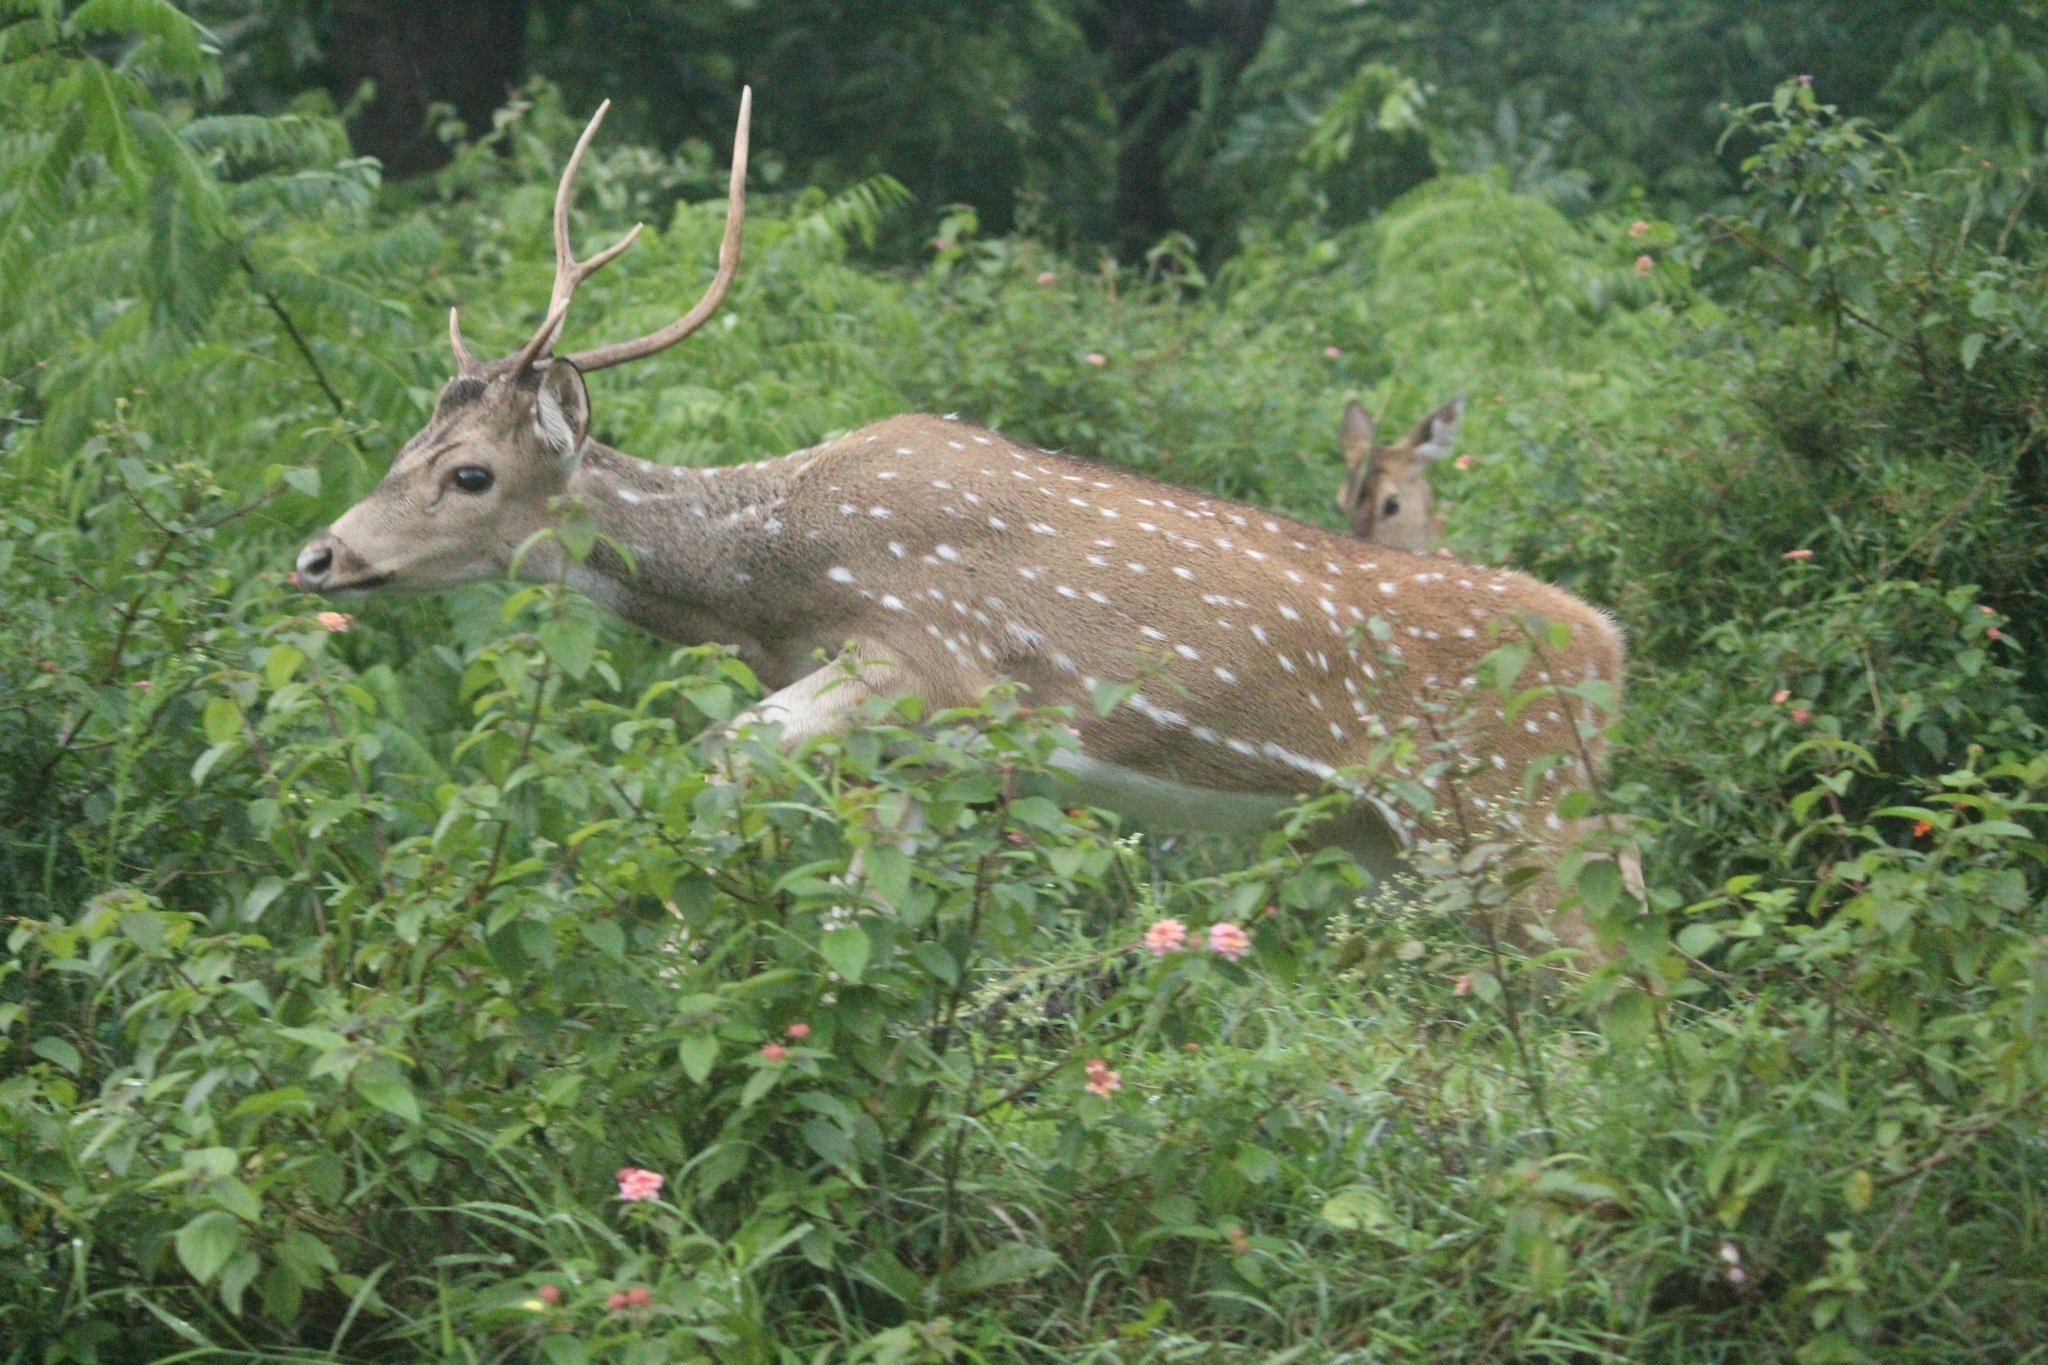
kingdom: Animalia
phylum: Chordata
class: Mammalia
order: Artiodactyla
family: Cervidae
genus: Axis
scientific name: Axis axis
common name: Chital
